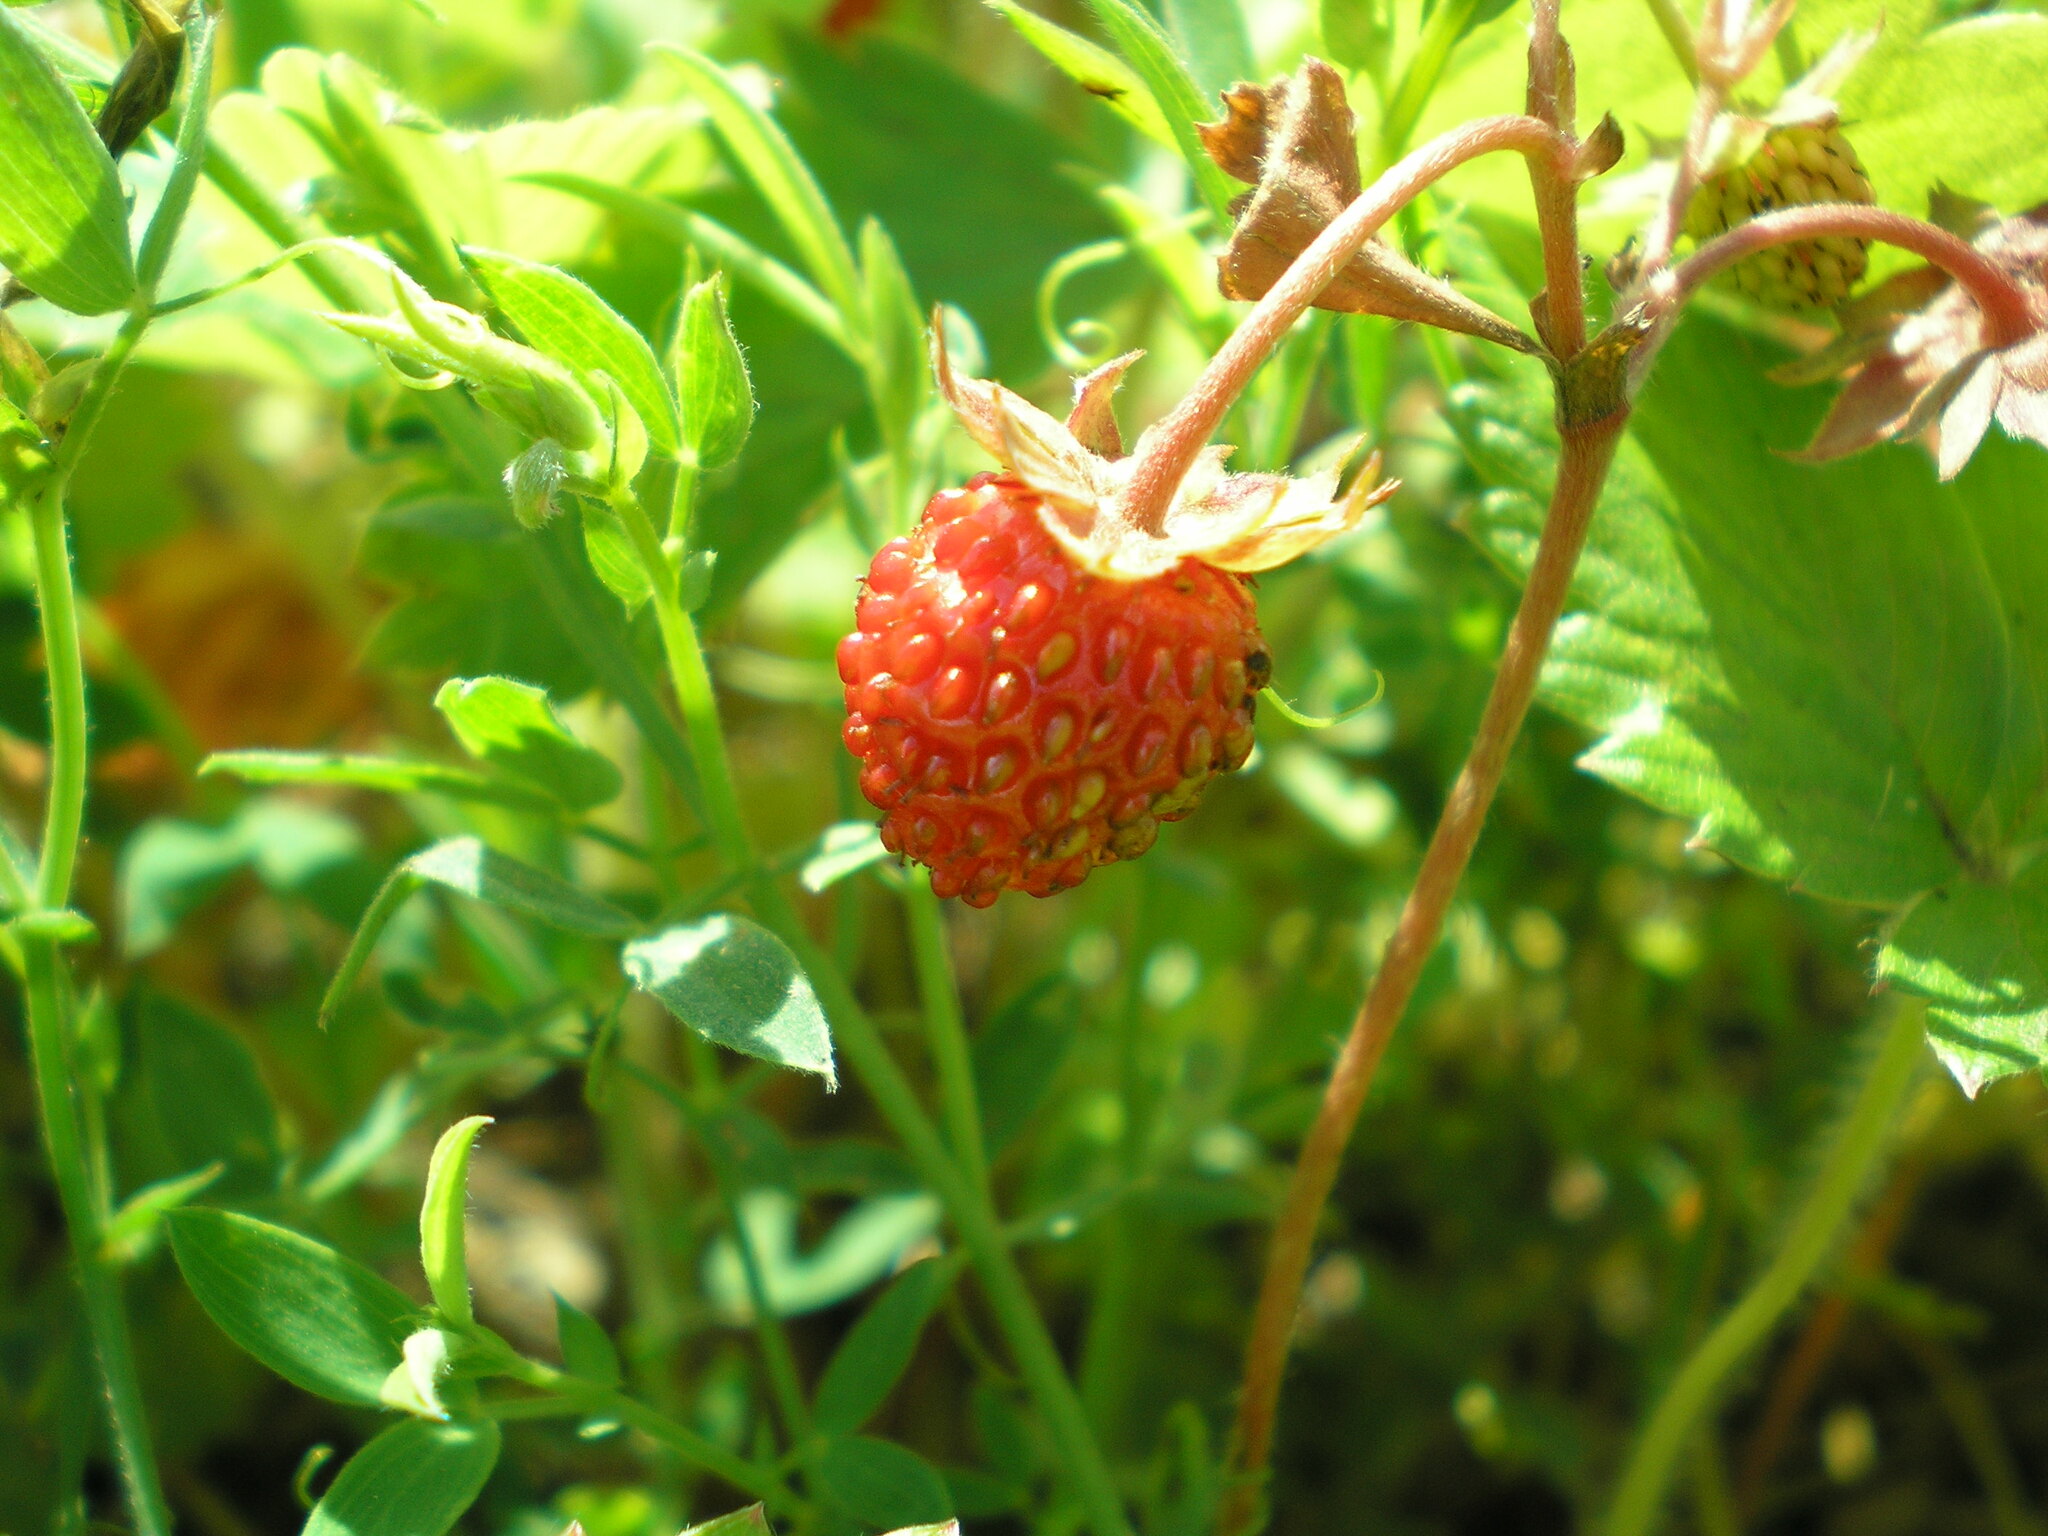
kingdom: Plantae
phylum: Tracheophyta
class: Magnoliopsida
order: Rosales
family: Rosaceae
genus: Fragaria
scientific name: Fragaria vesca
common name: Wild strawberry
